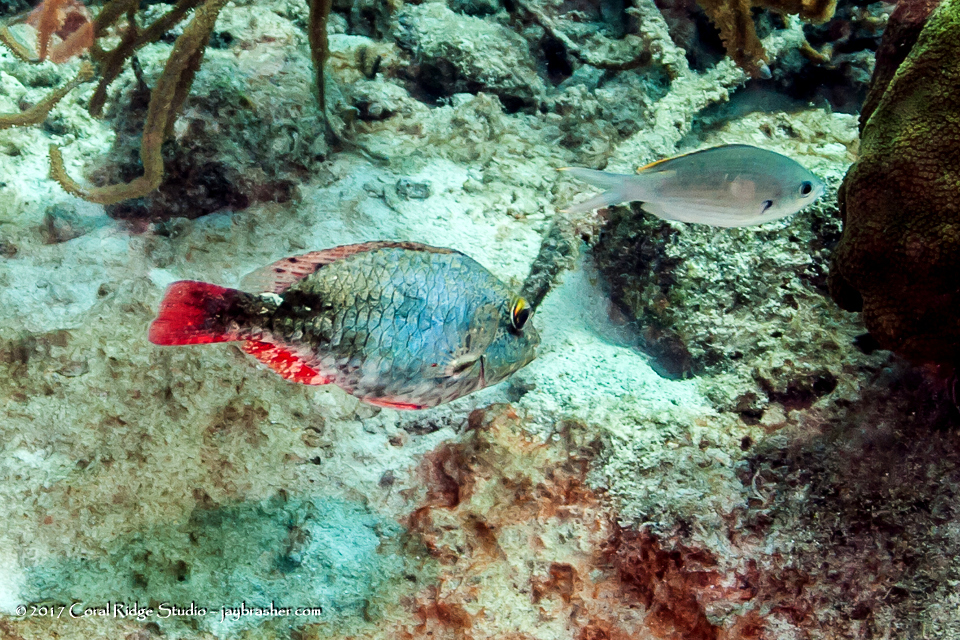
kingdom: Animalia
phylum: Chordata
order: Perciformes
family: Scaridae
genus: Sparisoma
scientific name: Sparisoma aurofrenatum
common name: Redband parrotfish
